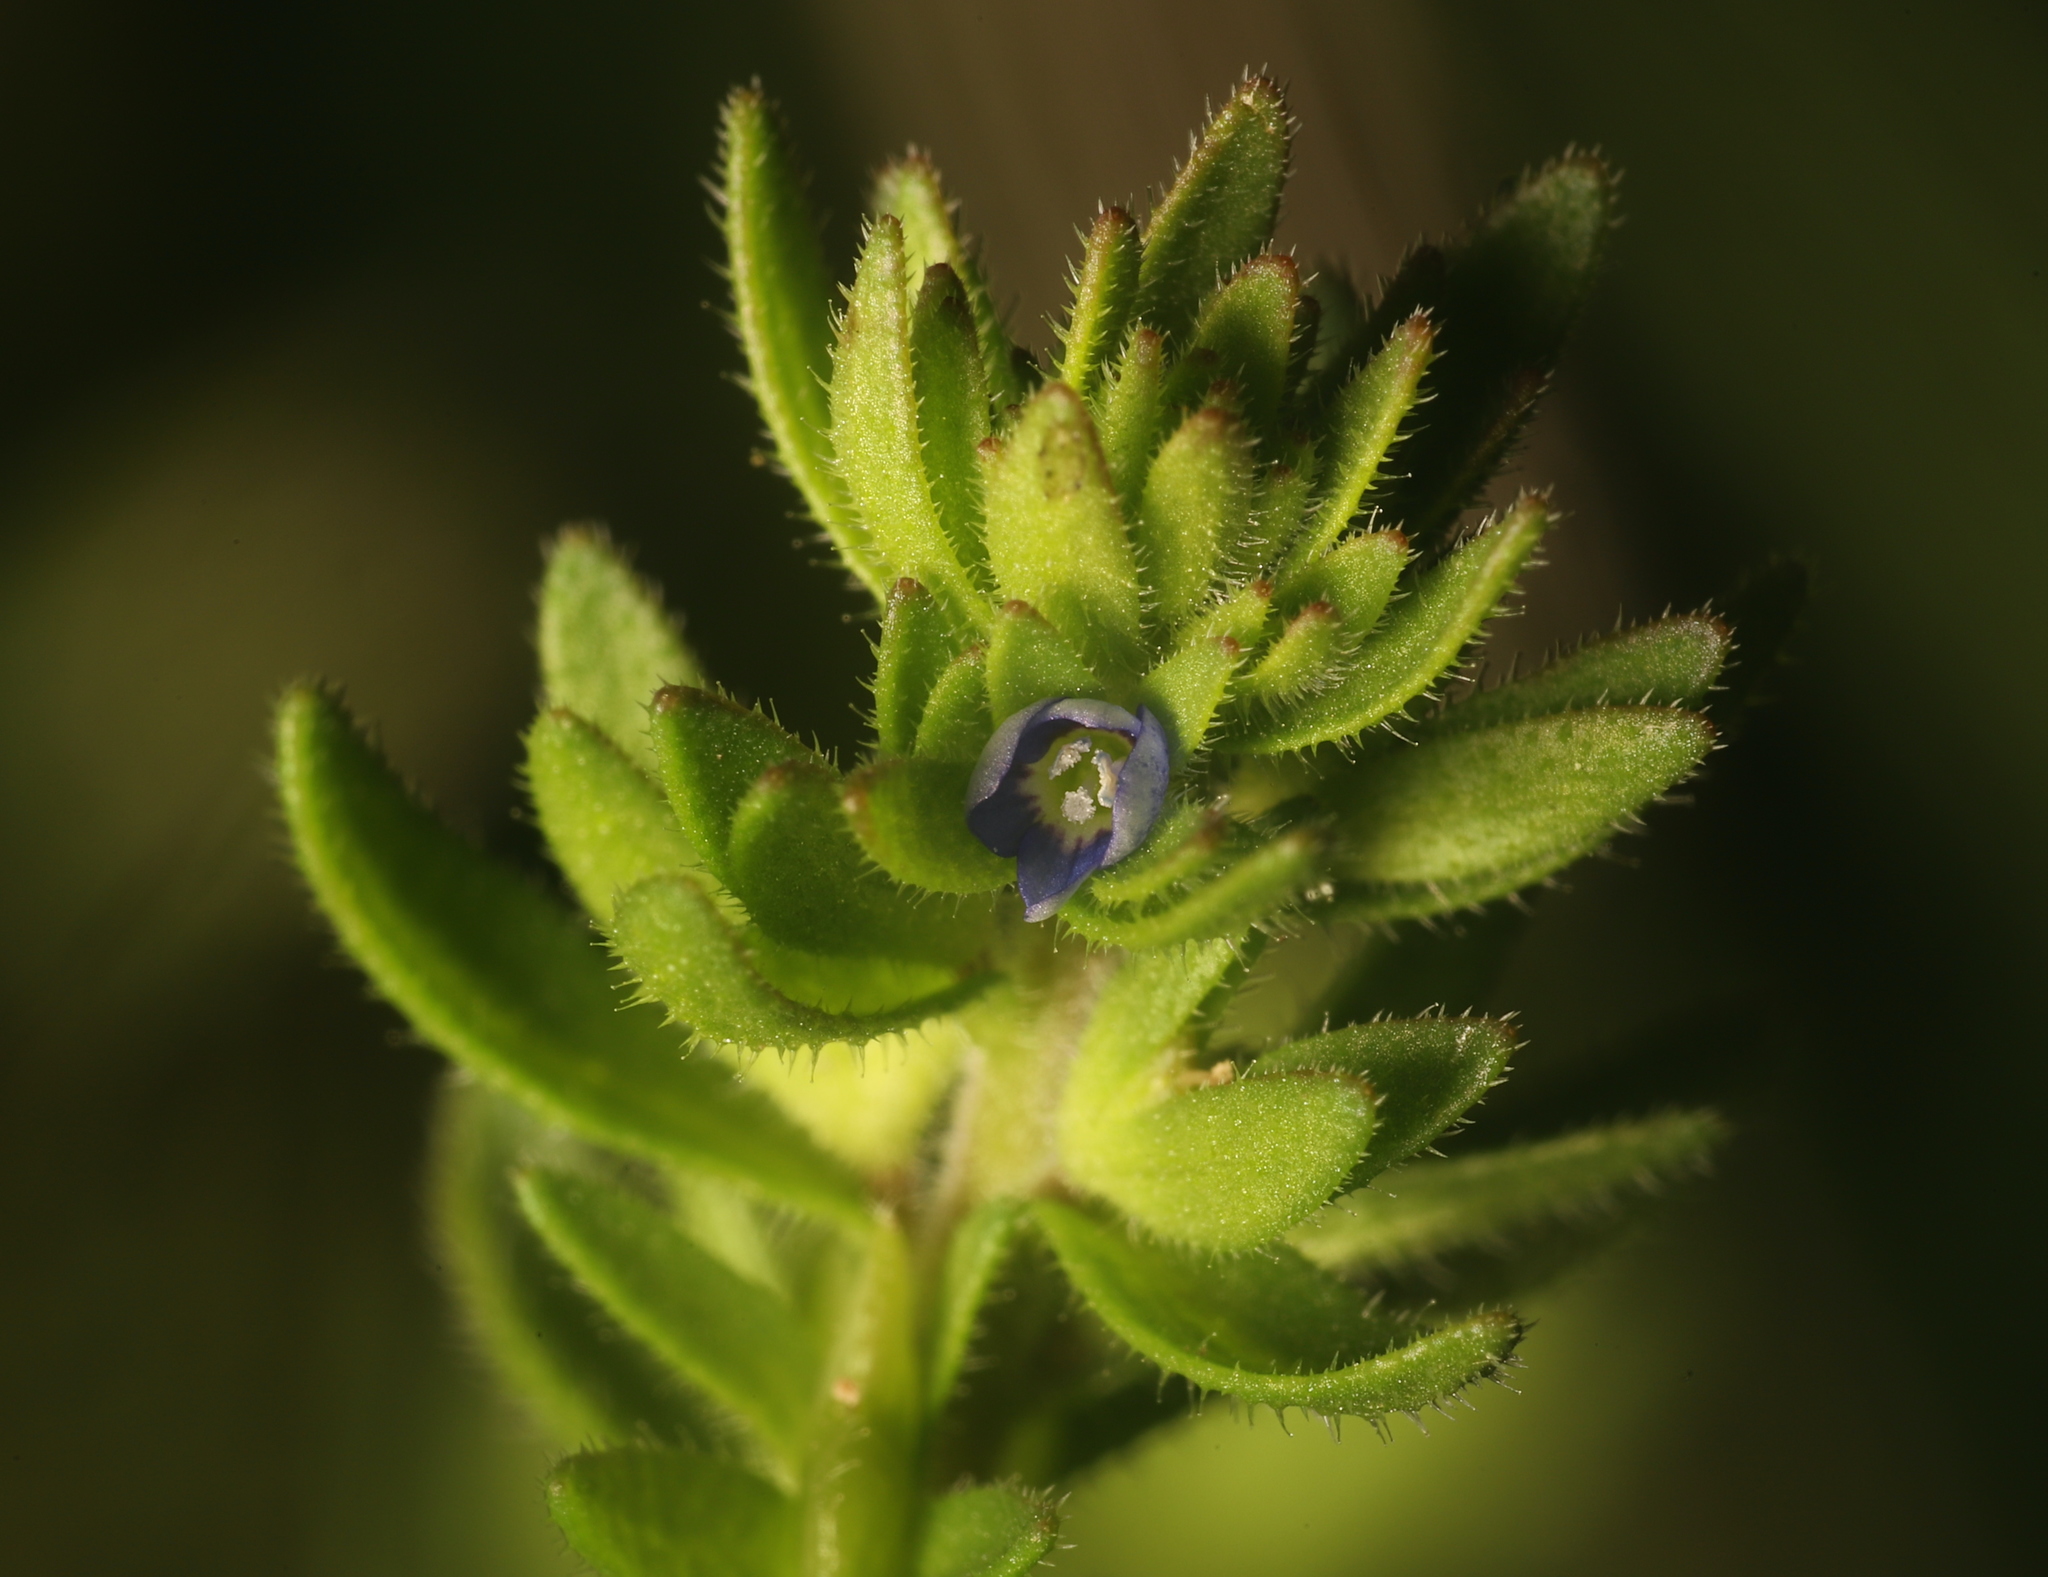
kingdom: Plantae
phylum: Tracheophyta
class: Magnoliopsida
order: Lamiales
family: Plantaginaceae
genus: Veronica
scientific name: Veronica arvensis
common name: Corn speedwell
